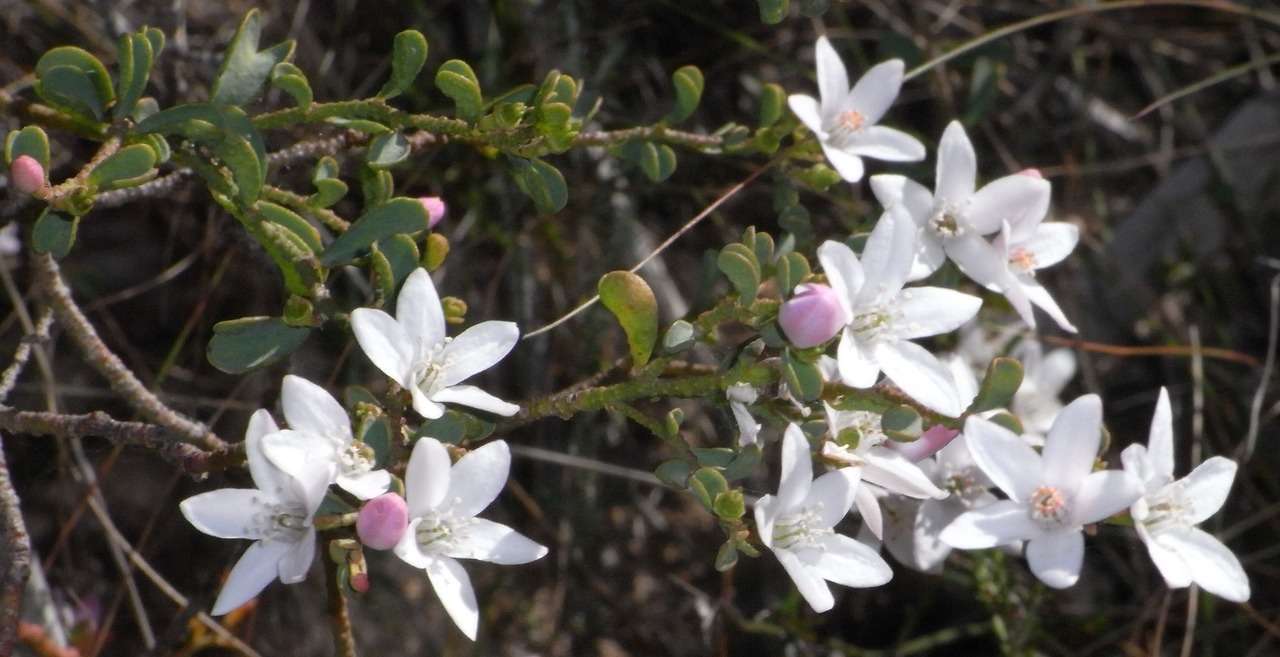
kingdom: Plantae
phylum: Tracheophyta
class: Magnoliopsida
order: Sapindales
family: Rutaceae
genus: Philotheca
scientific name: Philotheca verrucosa
